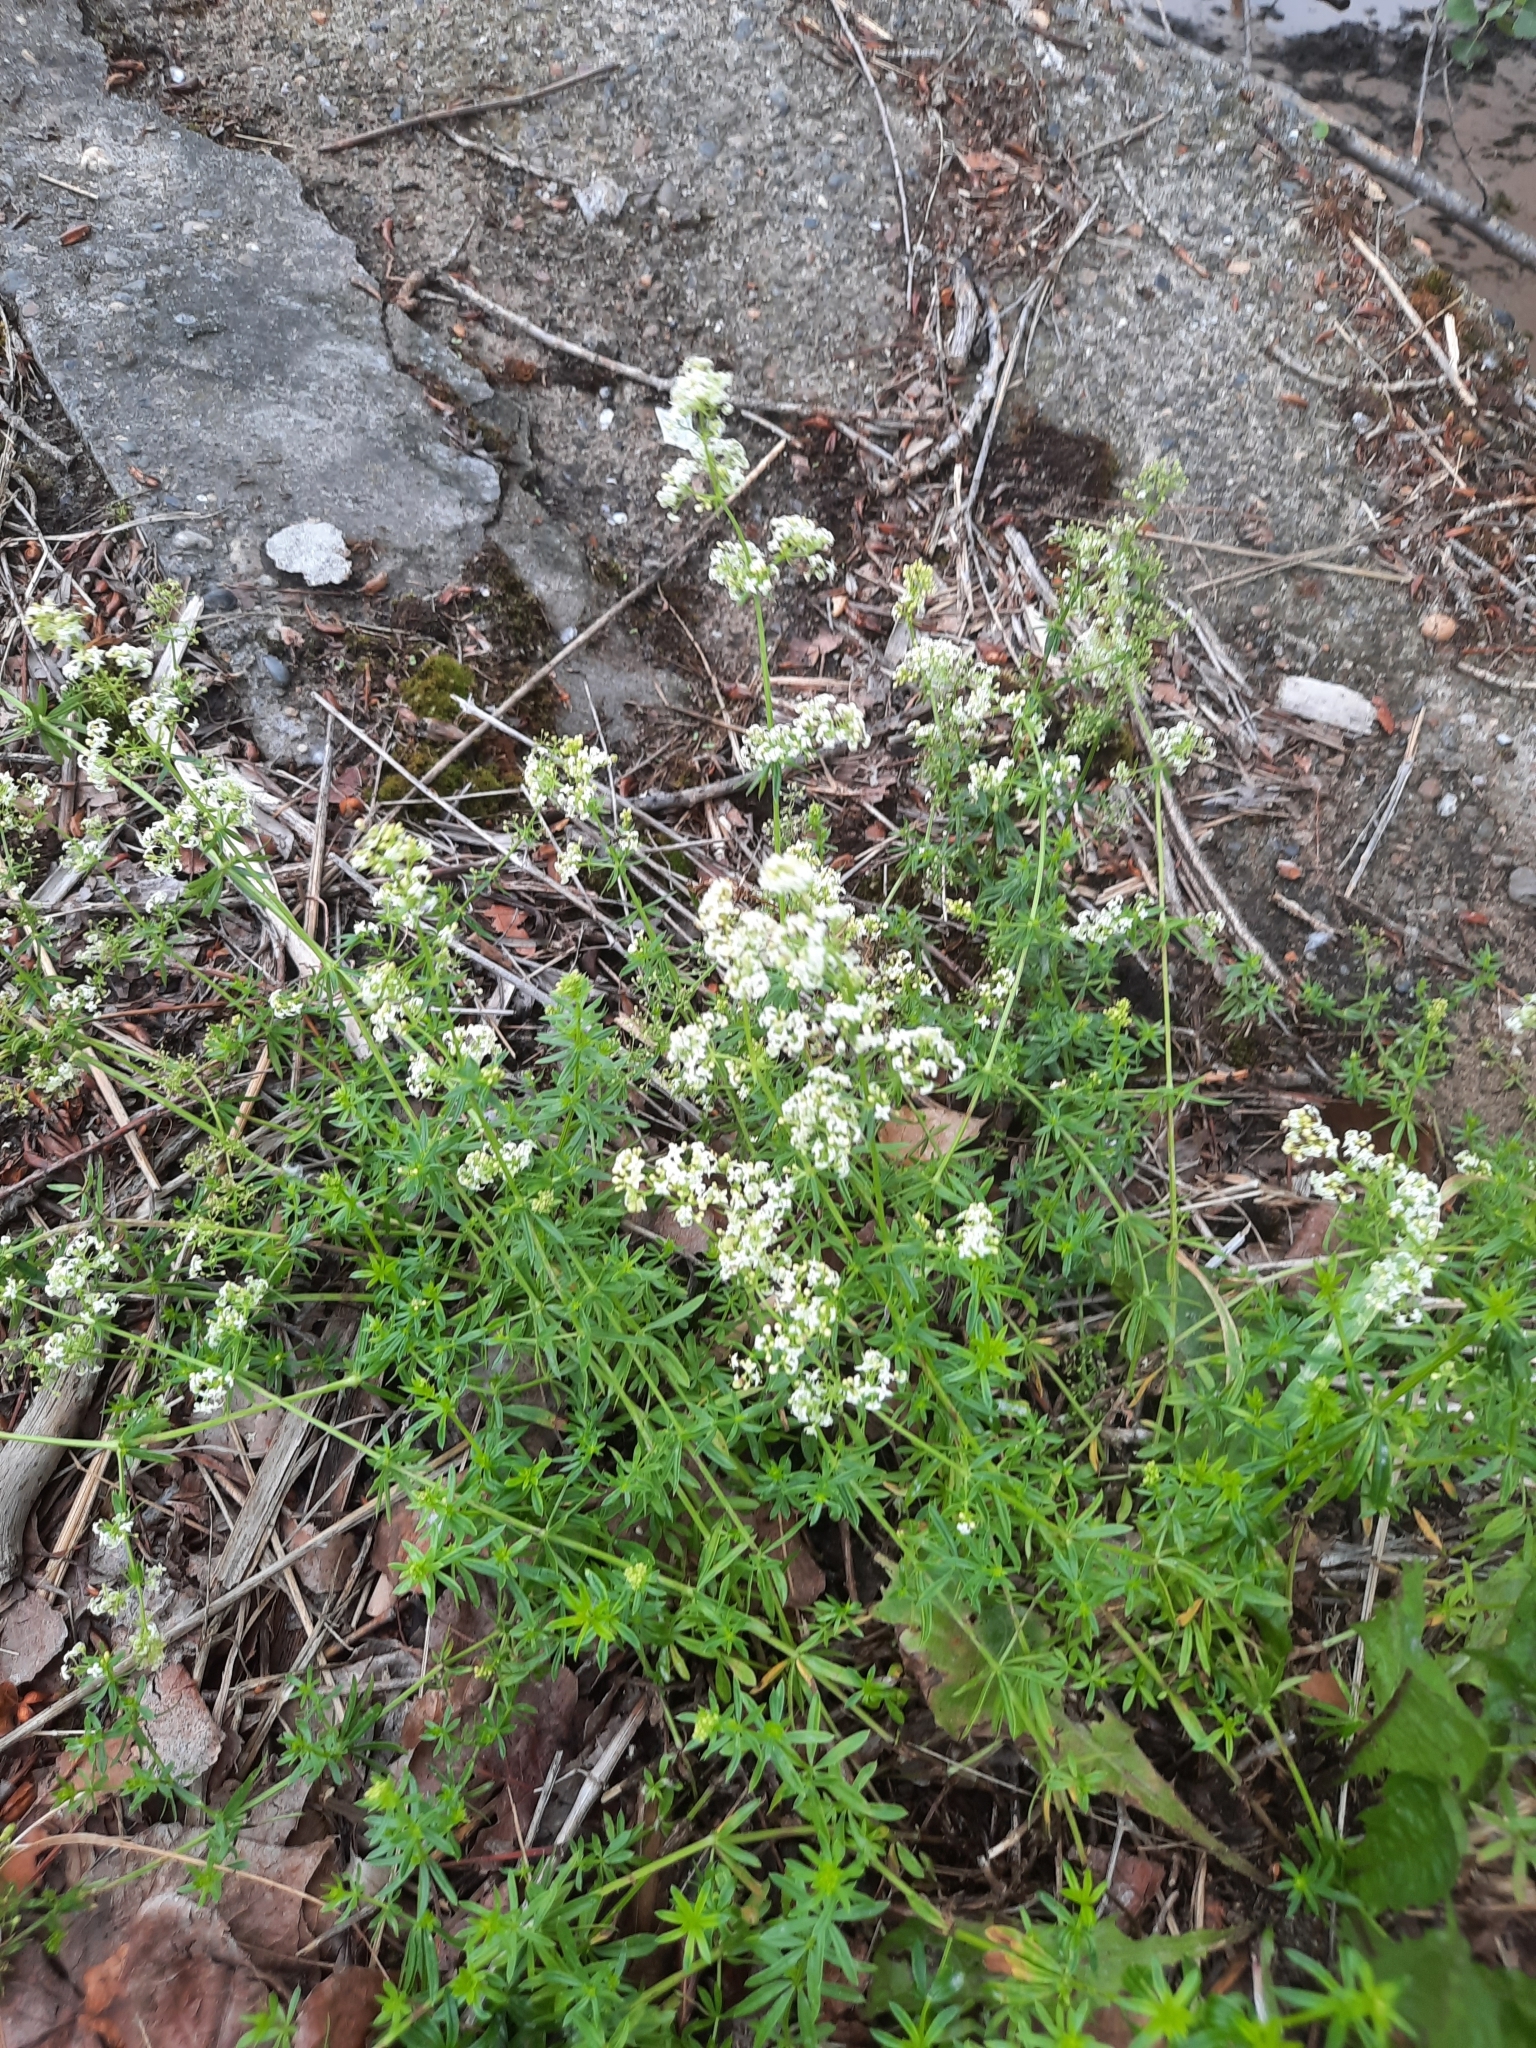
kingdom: Plantae
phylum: Tracheophyta
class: Magnoliopsida
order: Gentianales
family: Rubiaceae
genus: Galium
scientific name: Galium mollugo
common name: Hedge bedstraw
